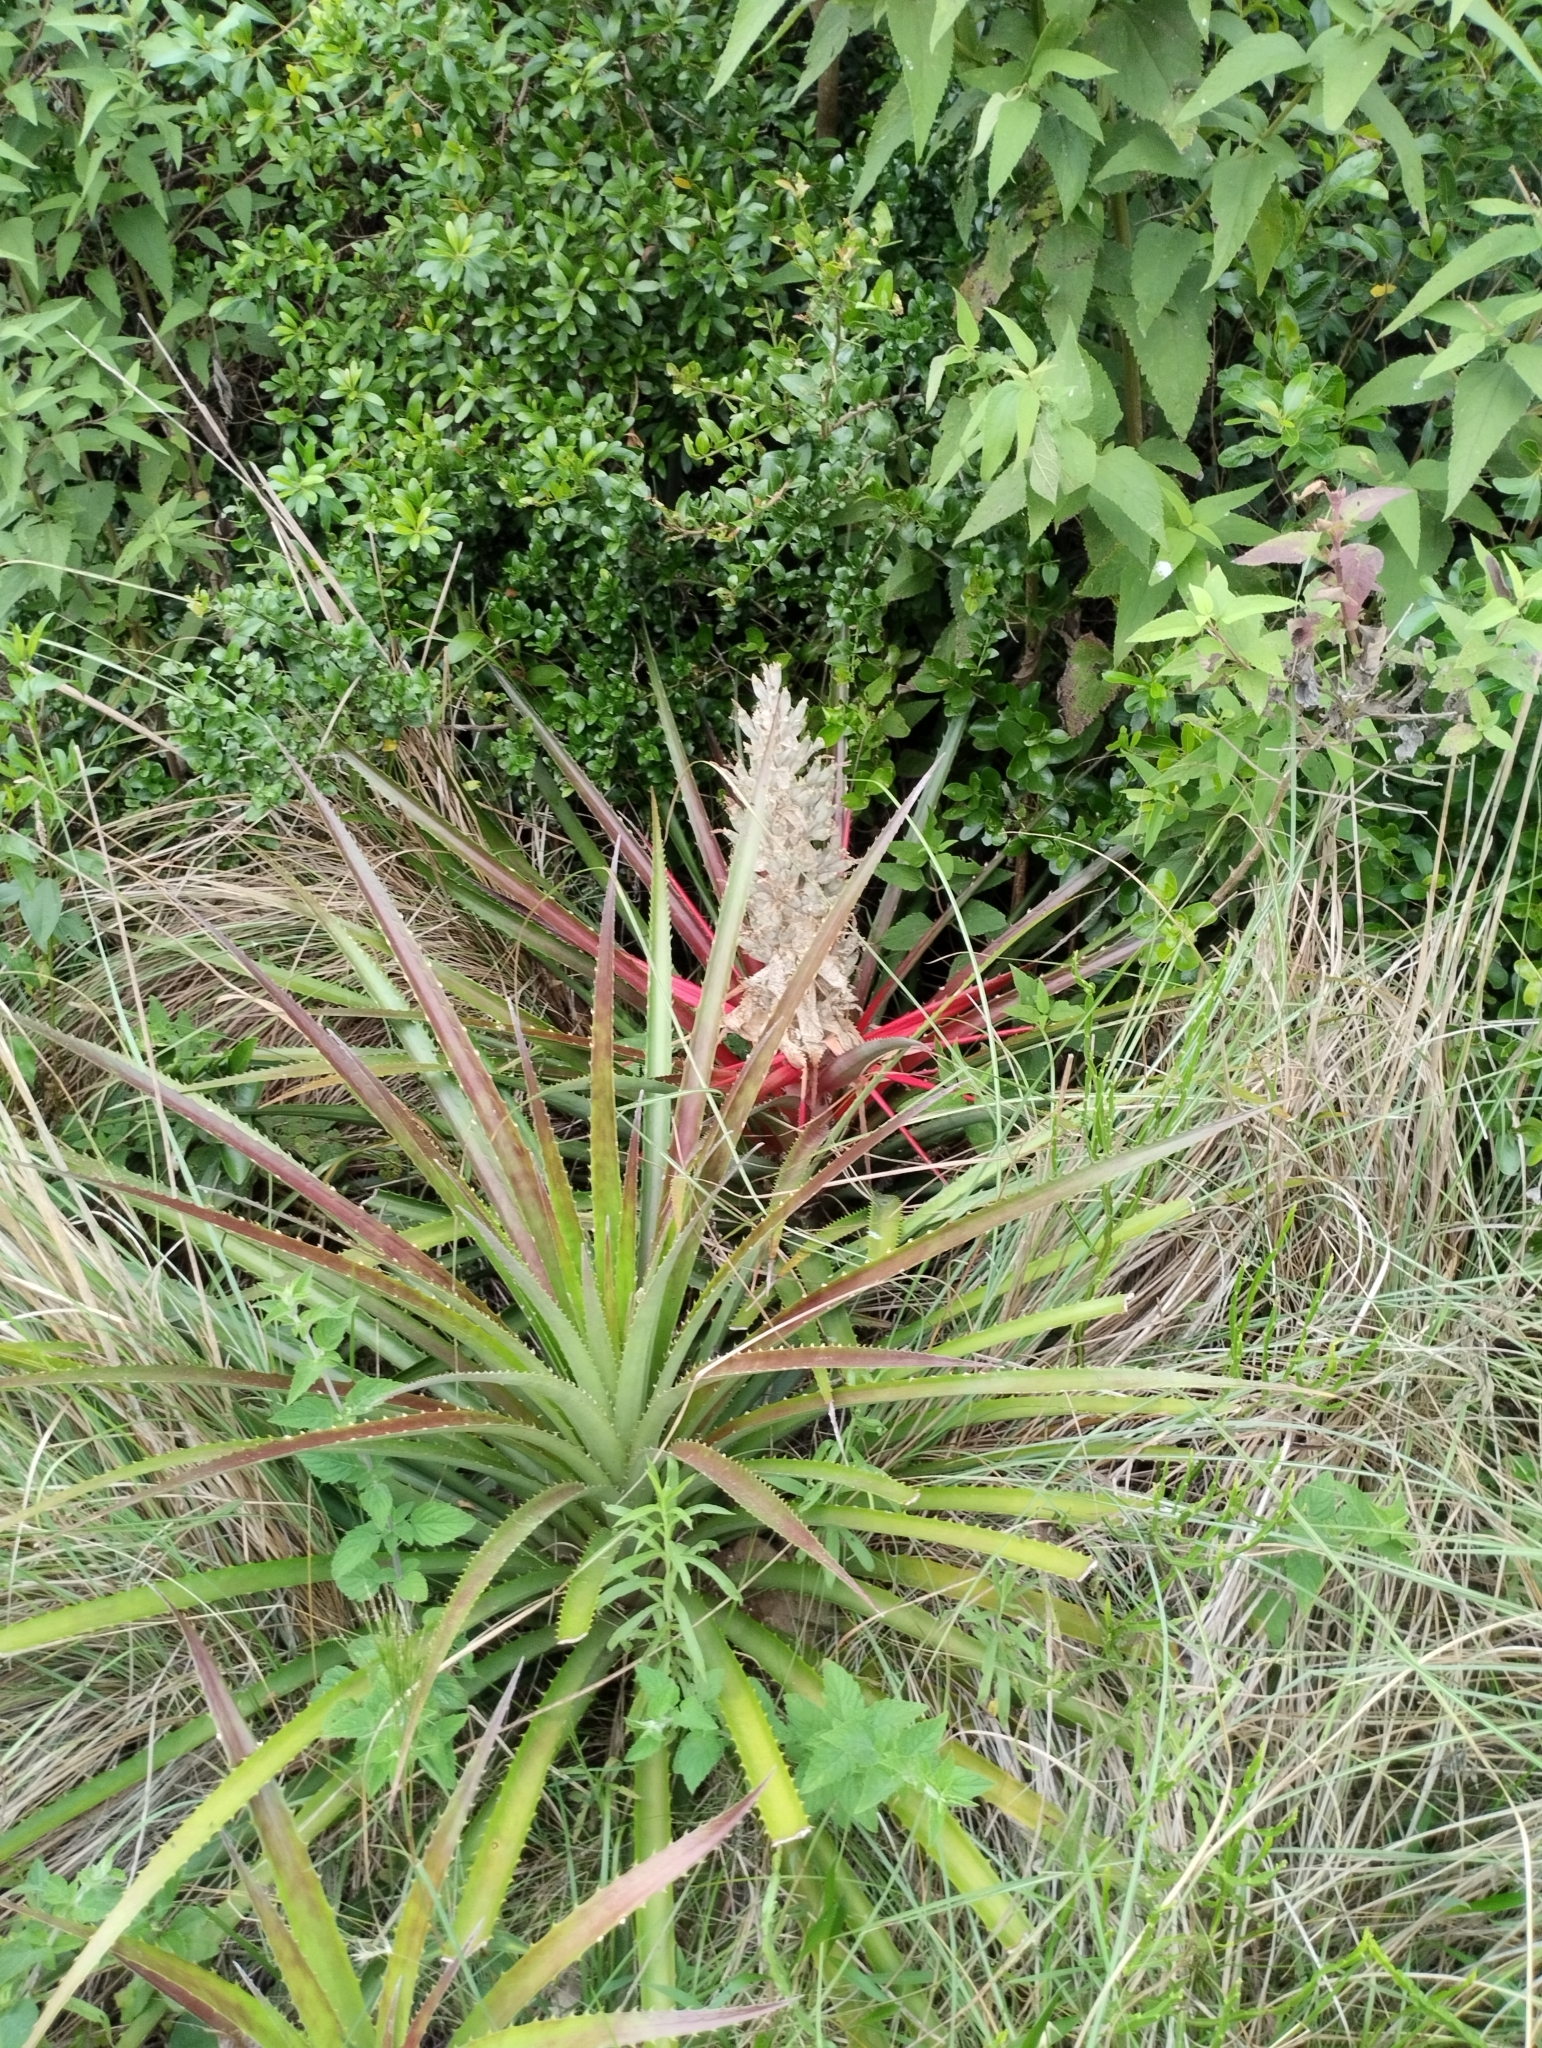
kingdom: Plantae
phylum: Tracheophyta
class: Liliopsida
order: Poales
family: Bromeliaceae
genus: Bromelia
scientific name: Bromelia antiacantha
